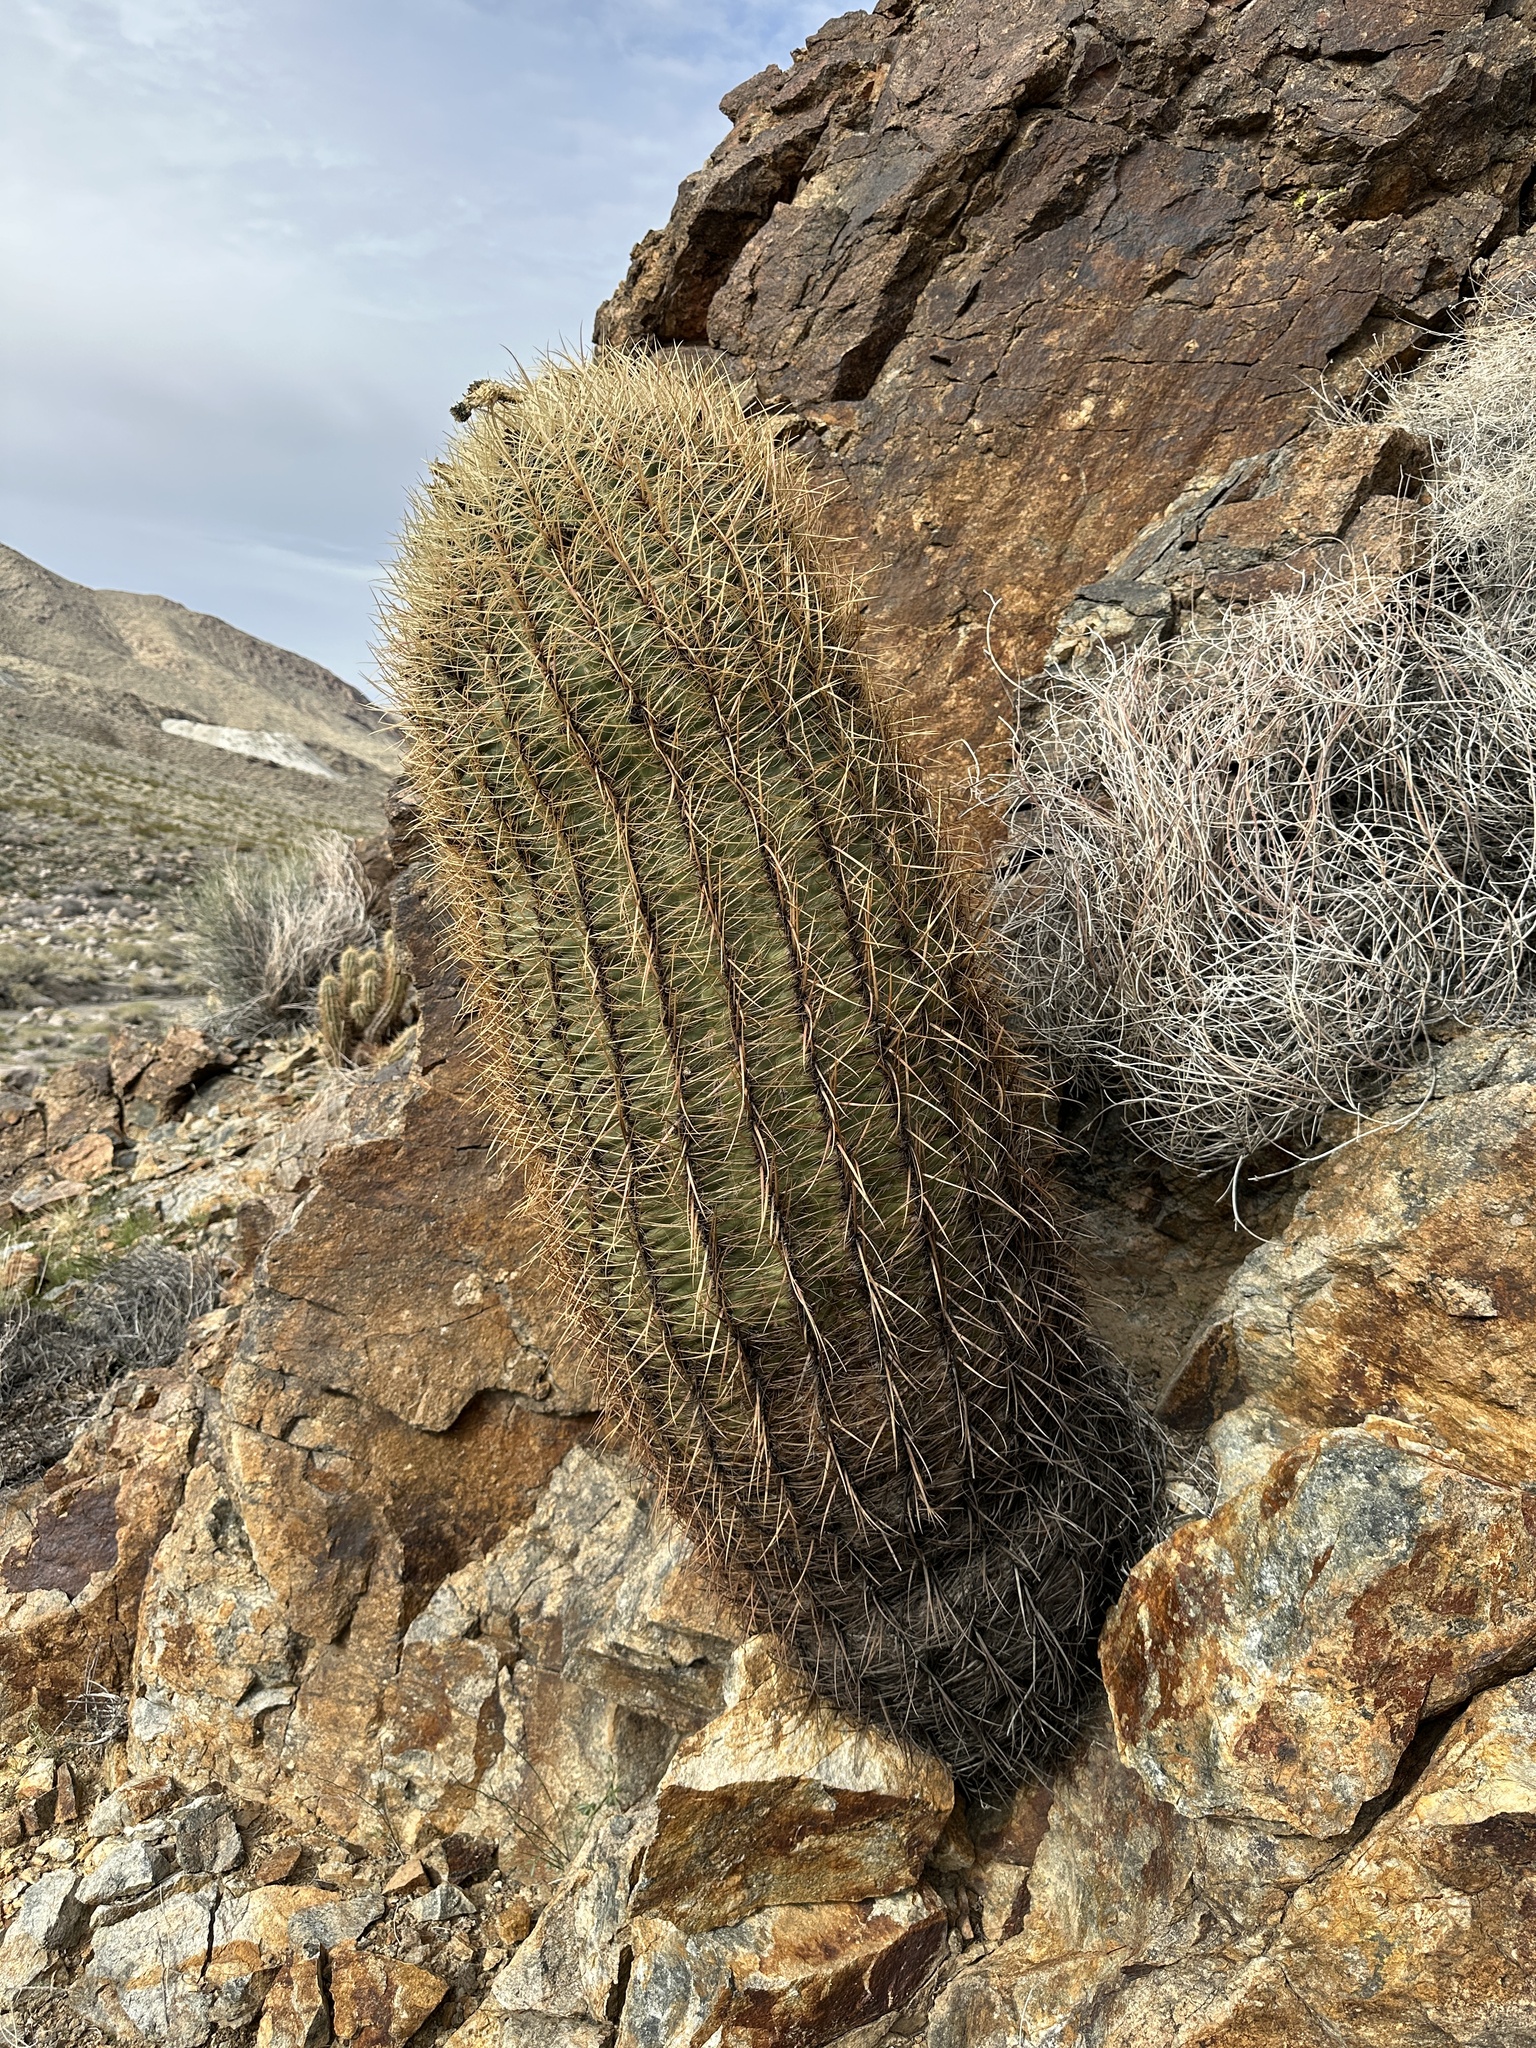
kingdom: Plantae
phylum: Tracheophyta
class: Magnoliopsida
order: Caryophyllales
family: Cactaceae
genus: Ferocactus
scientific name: Ferocactus cylindraceus
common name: California barrel cactus
